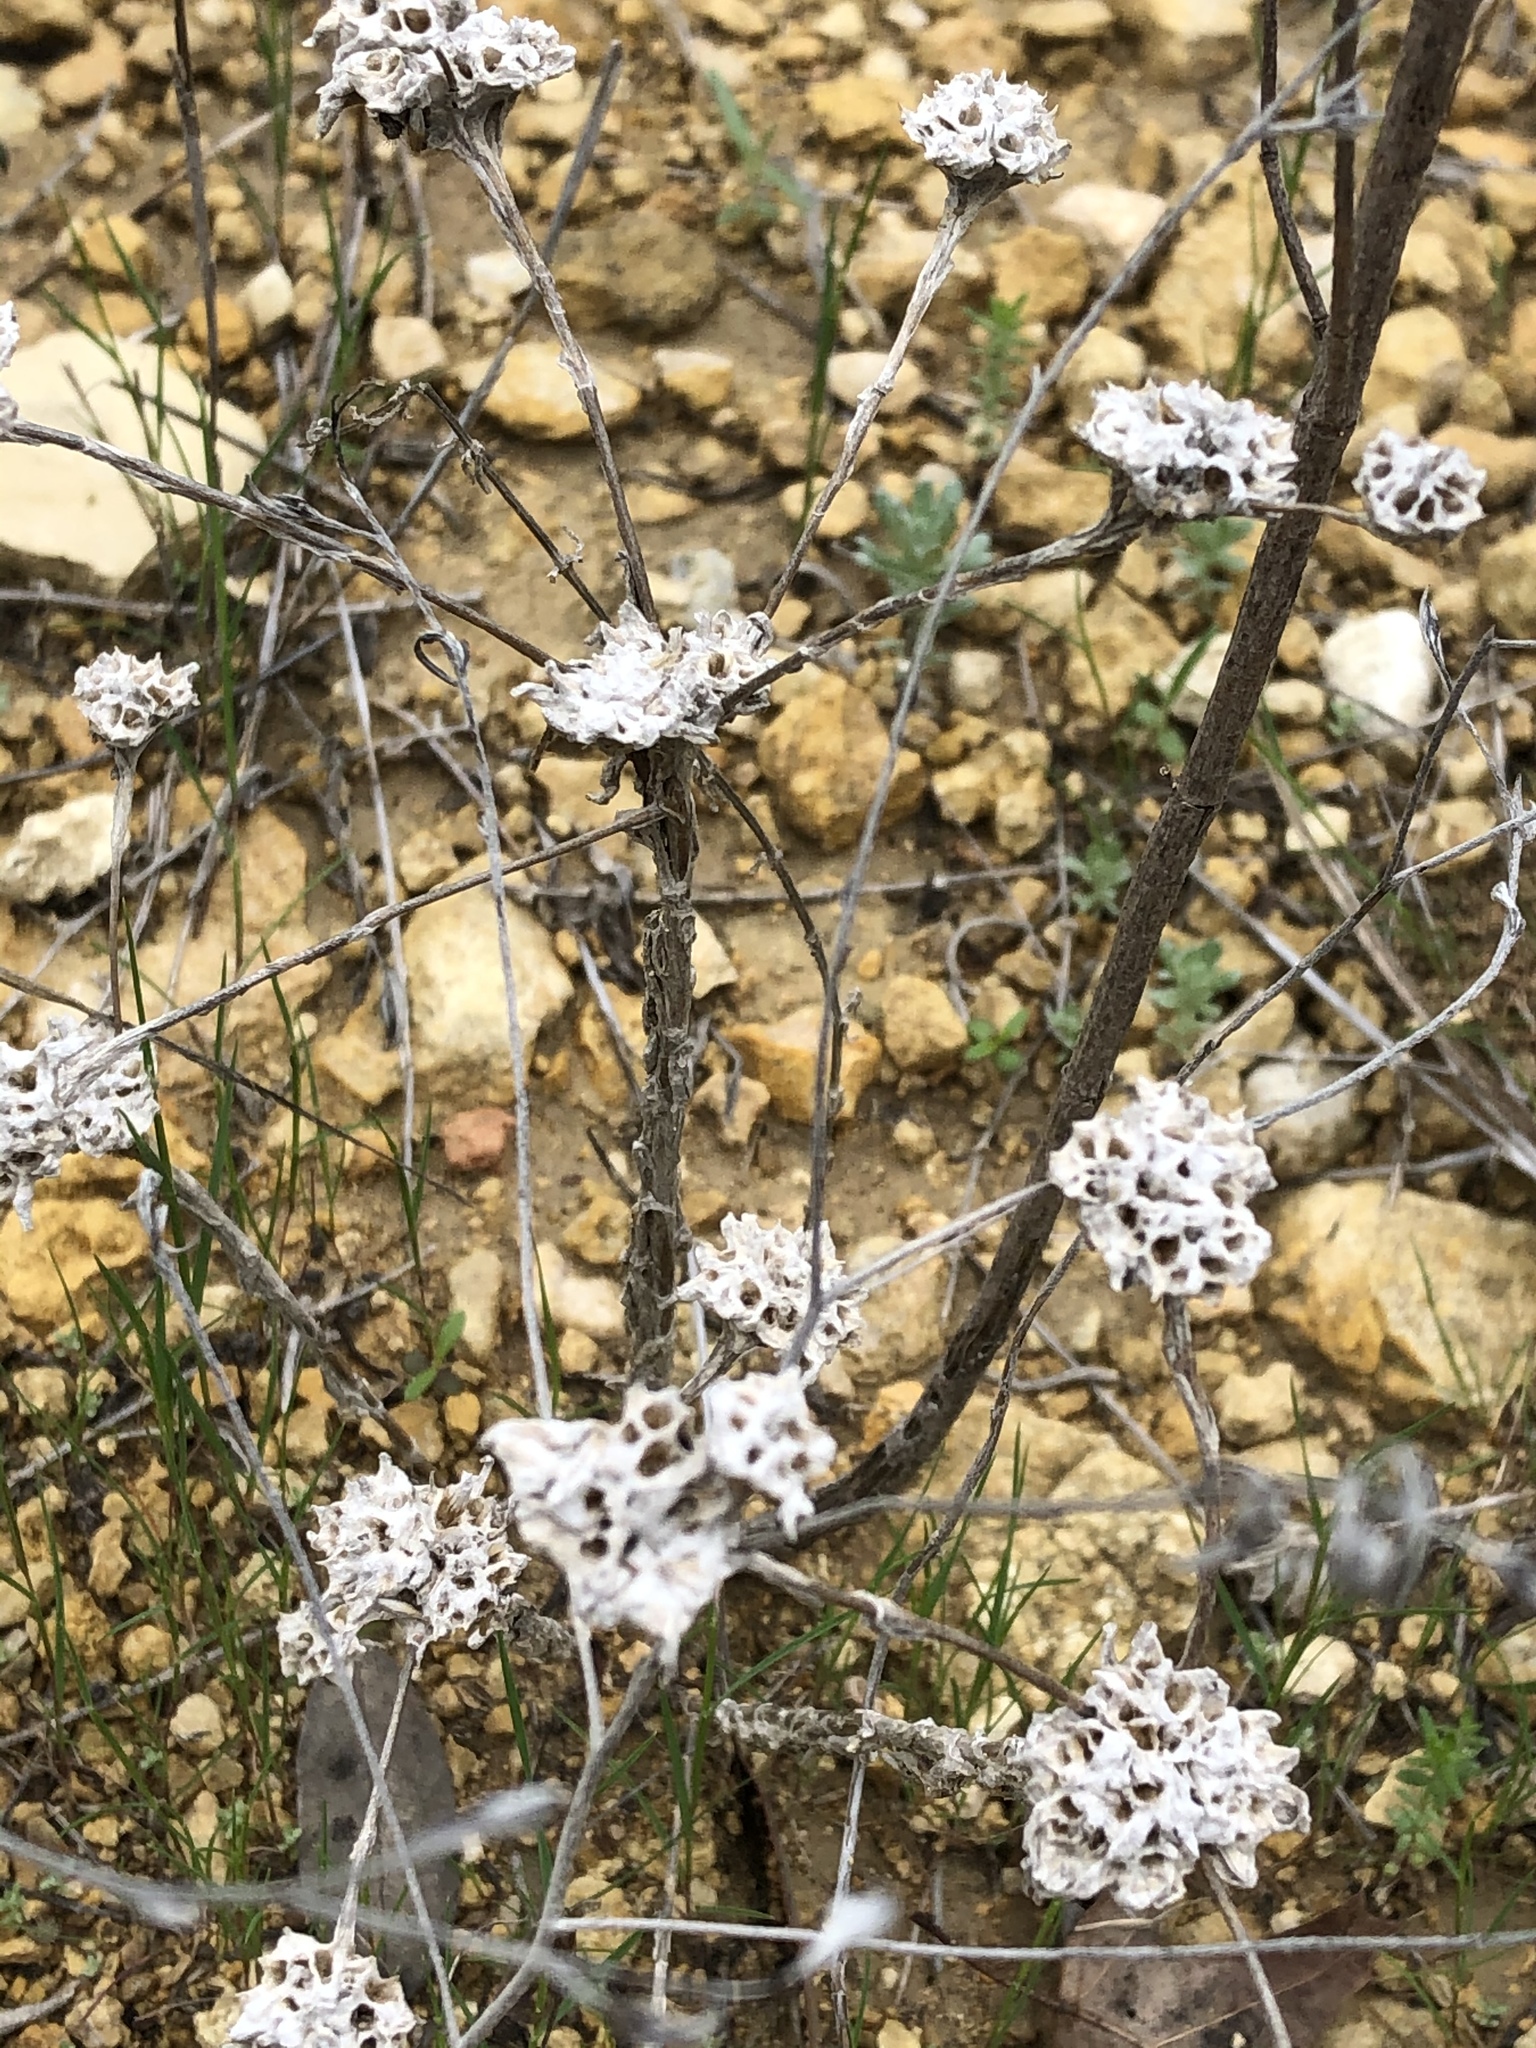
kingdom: Plantae
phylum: Tracheophyta
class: Magnoliopsida
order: Asterales
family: Asteraceae
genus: Diaperia
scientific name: Diaperia prolifera
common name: Big-head rabbit-tobacco
